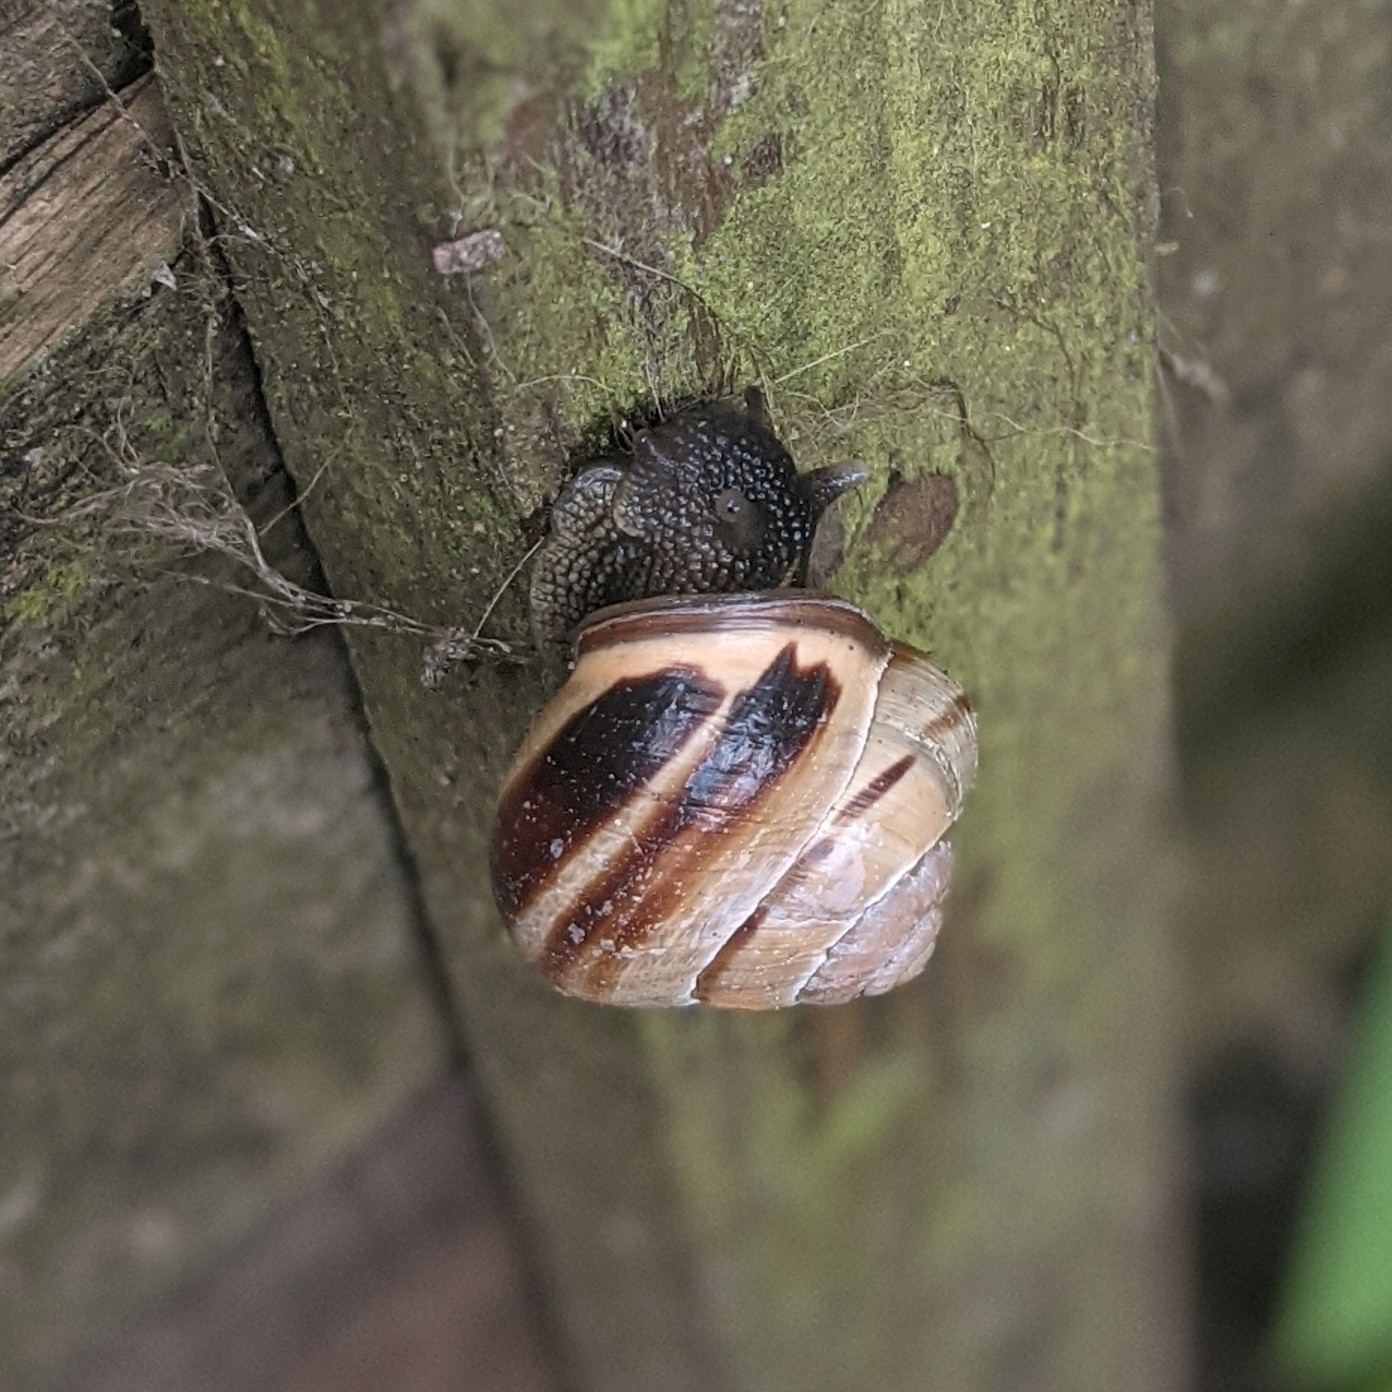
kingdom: Animalia
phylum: Mollusca
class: Gastropoda
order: Stylommatophora
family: Helicidae
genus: Cepaea
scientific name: Cepaea nemoralis
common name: Grovesnail
